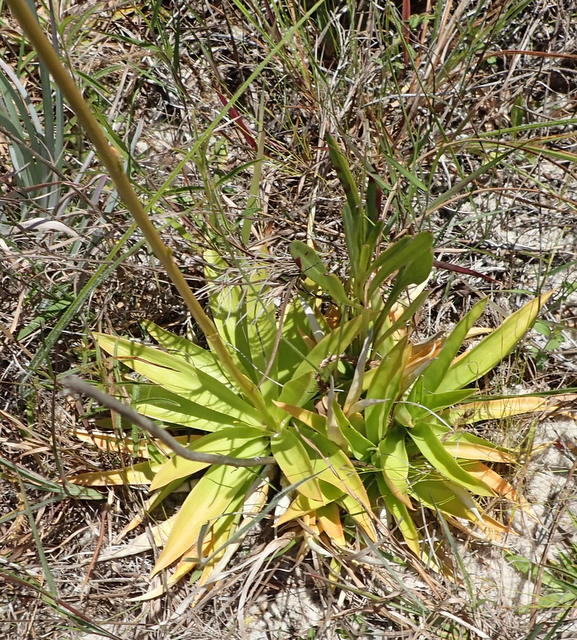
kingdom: Plantae
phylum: Tracheophyta
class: Liliopsida
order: Dioscoreales
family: Nartheciaceae
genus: Aletris
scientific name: Aletris lutea
